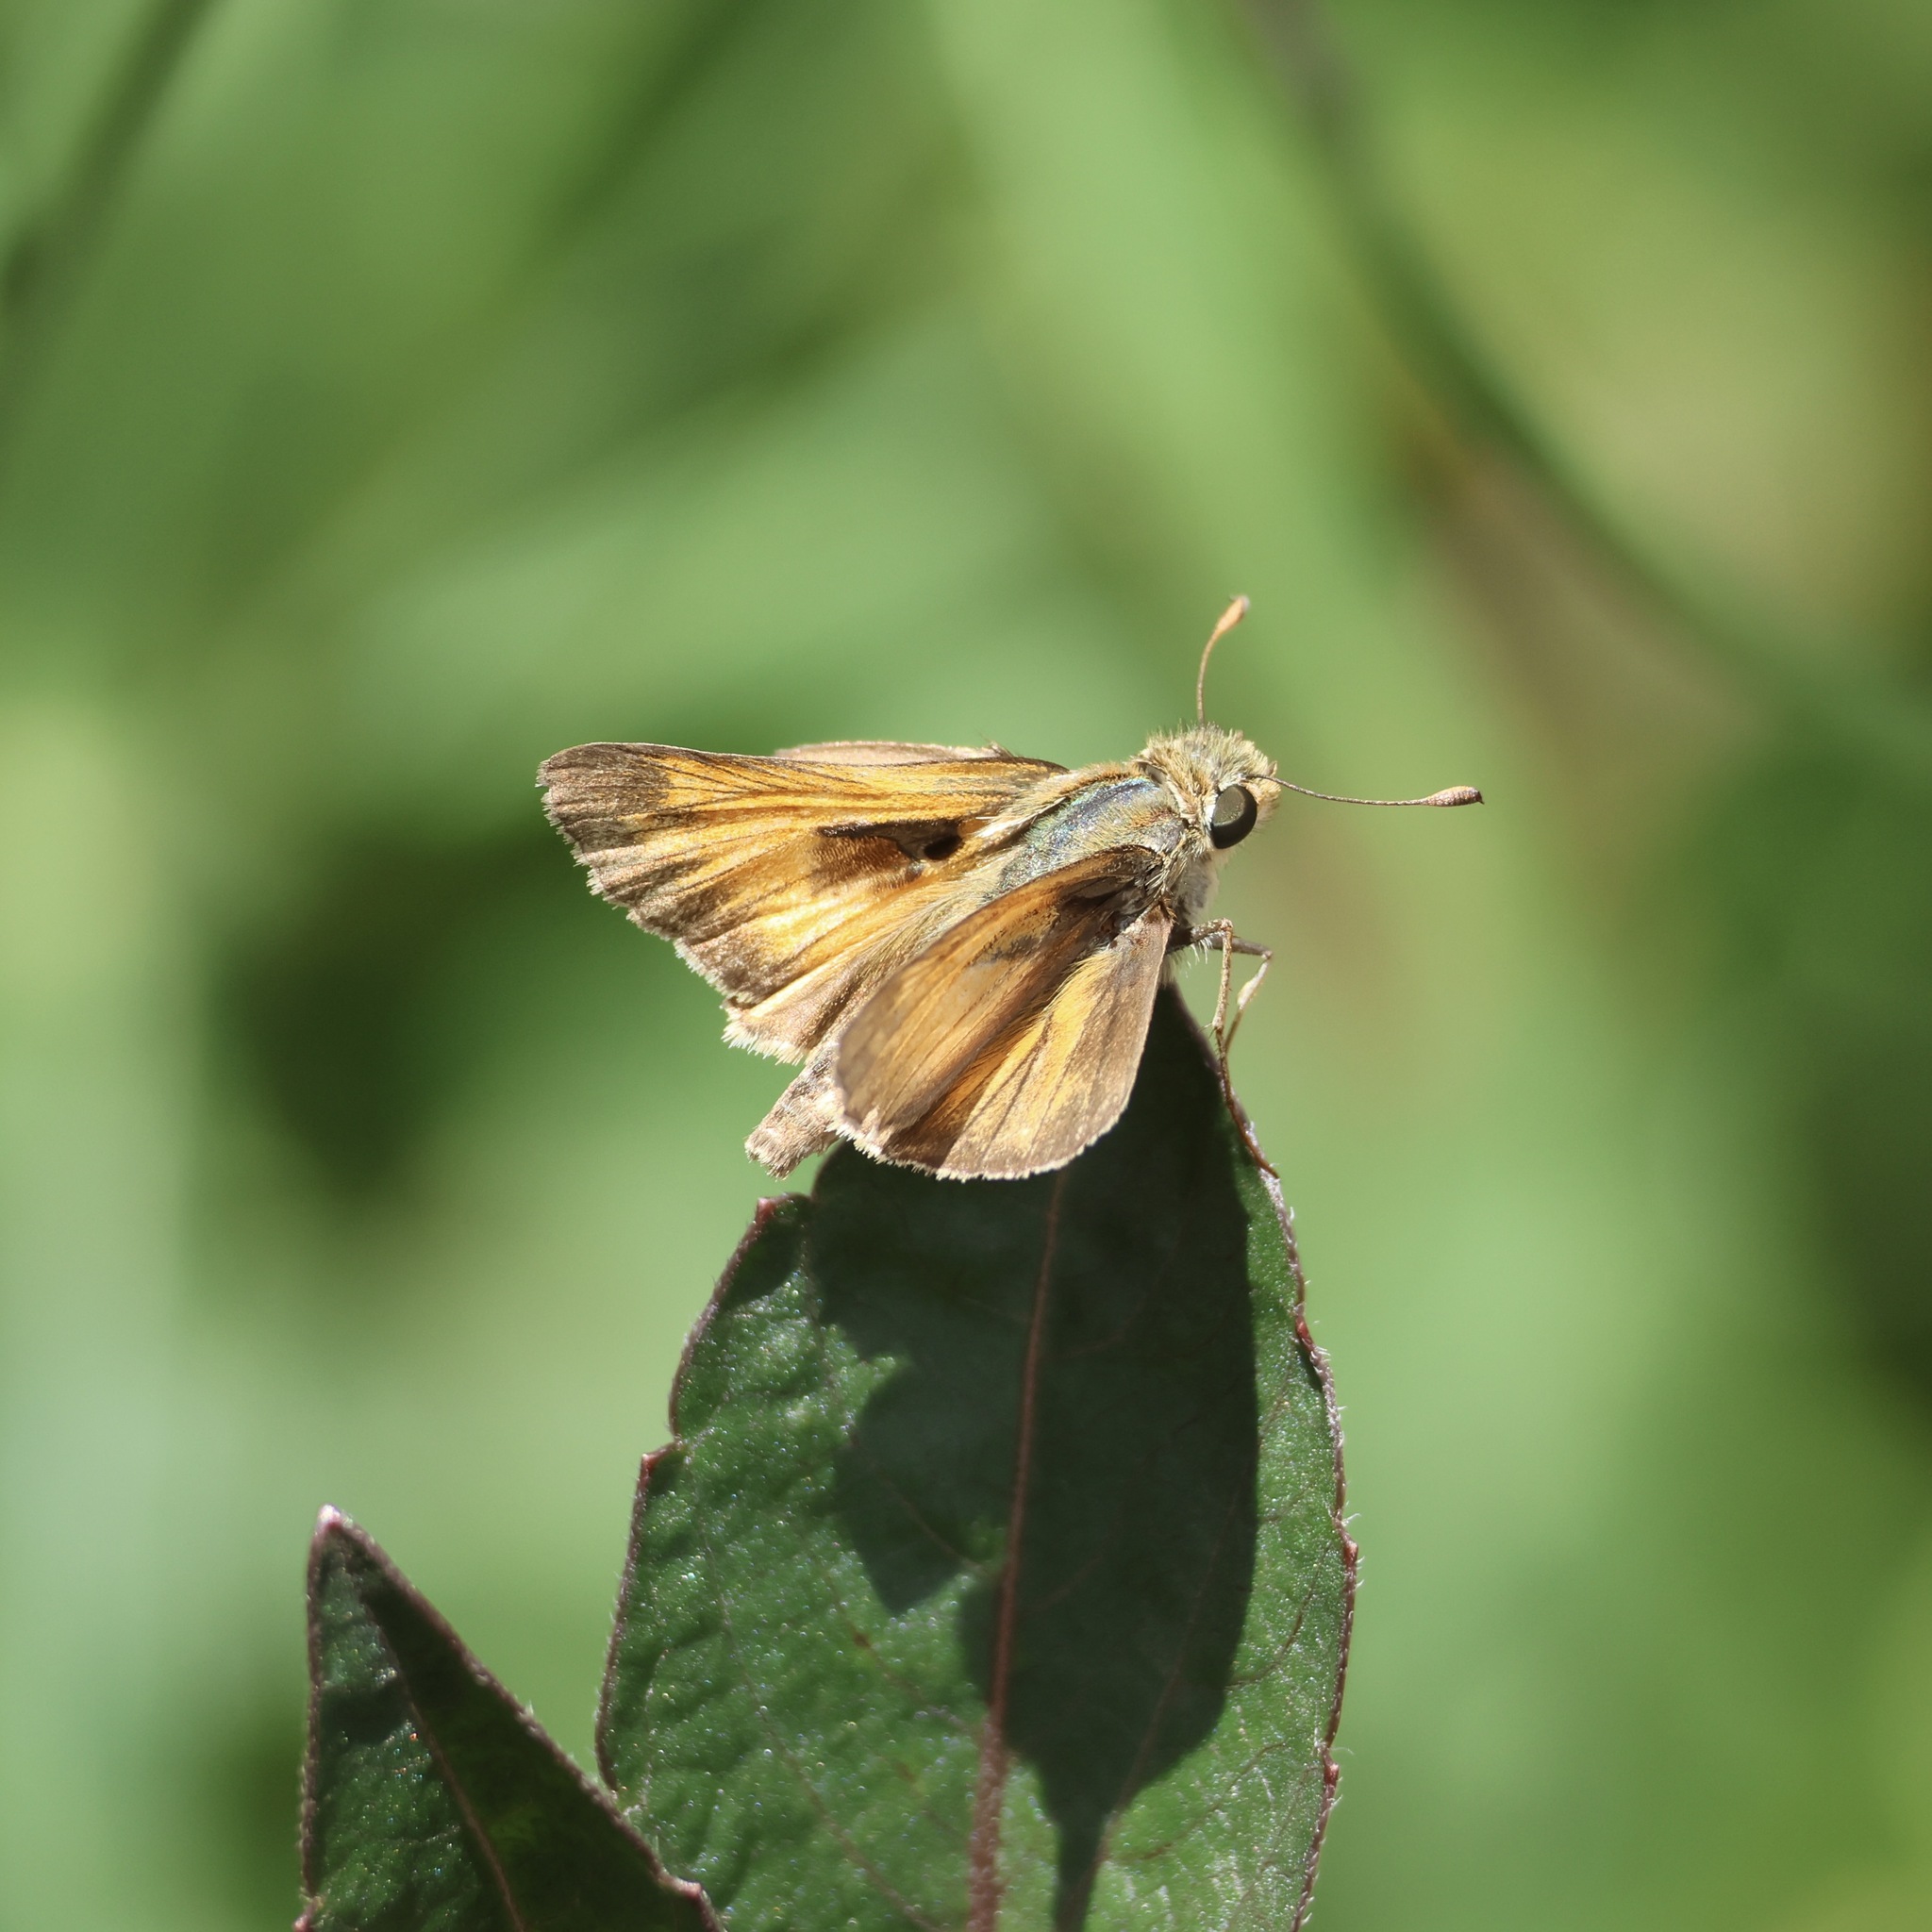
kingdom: Animalia
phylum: Arthropoda
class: Insecta
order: Lepidoptera
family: Hesperiidae
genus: Atalopedes
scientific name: Atalopedes
